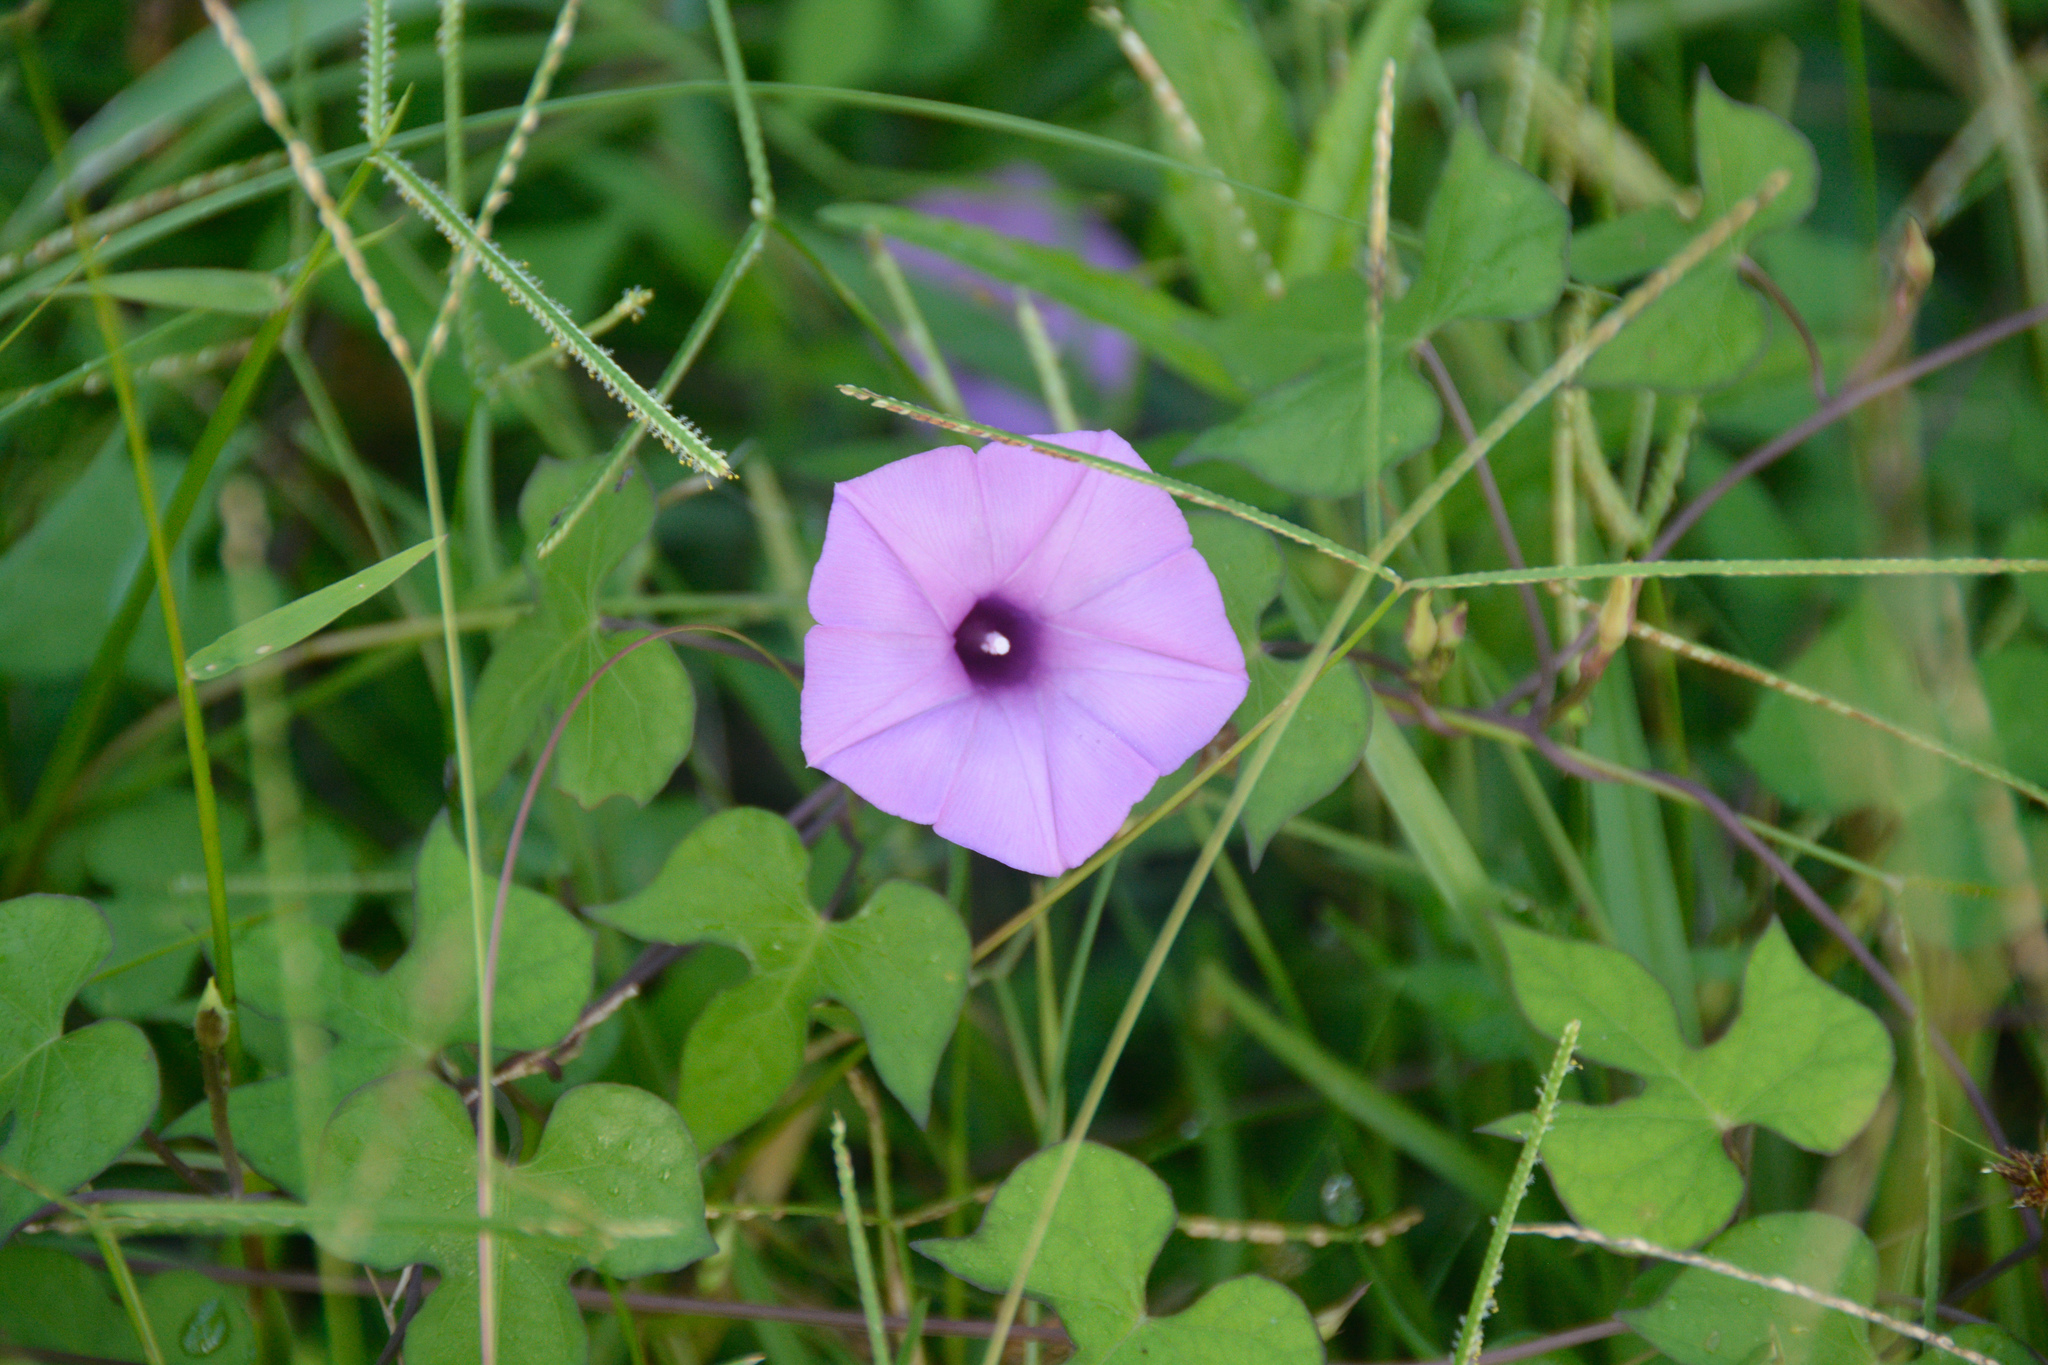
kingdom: Plantae
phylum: Tracheophyta
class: Magnoliopsida
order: Solanales
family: Convolvulaceae
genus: Ipomoea
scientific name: Ipomoea cordatotriloba
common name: Cotton morning glory
